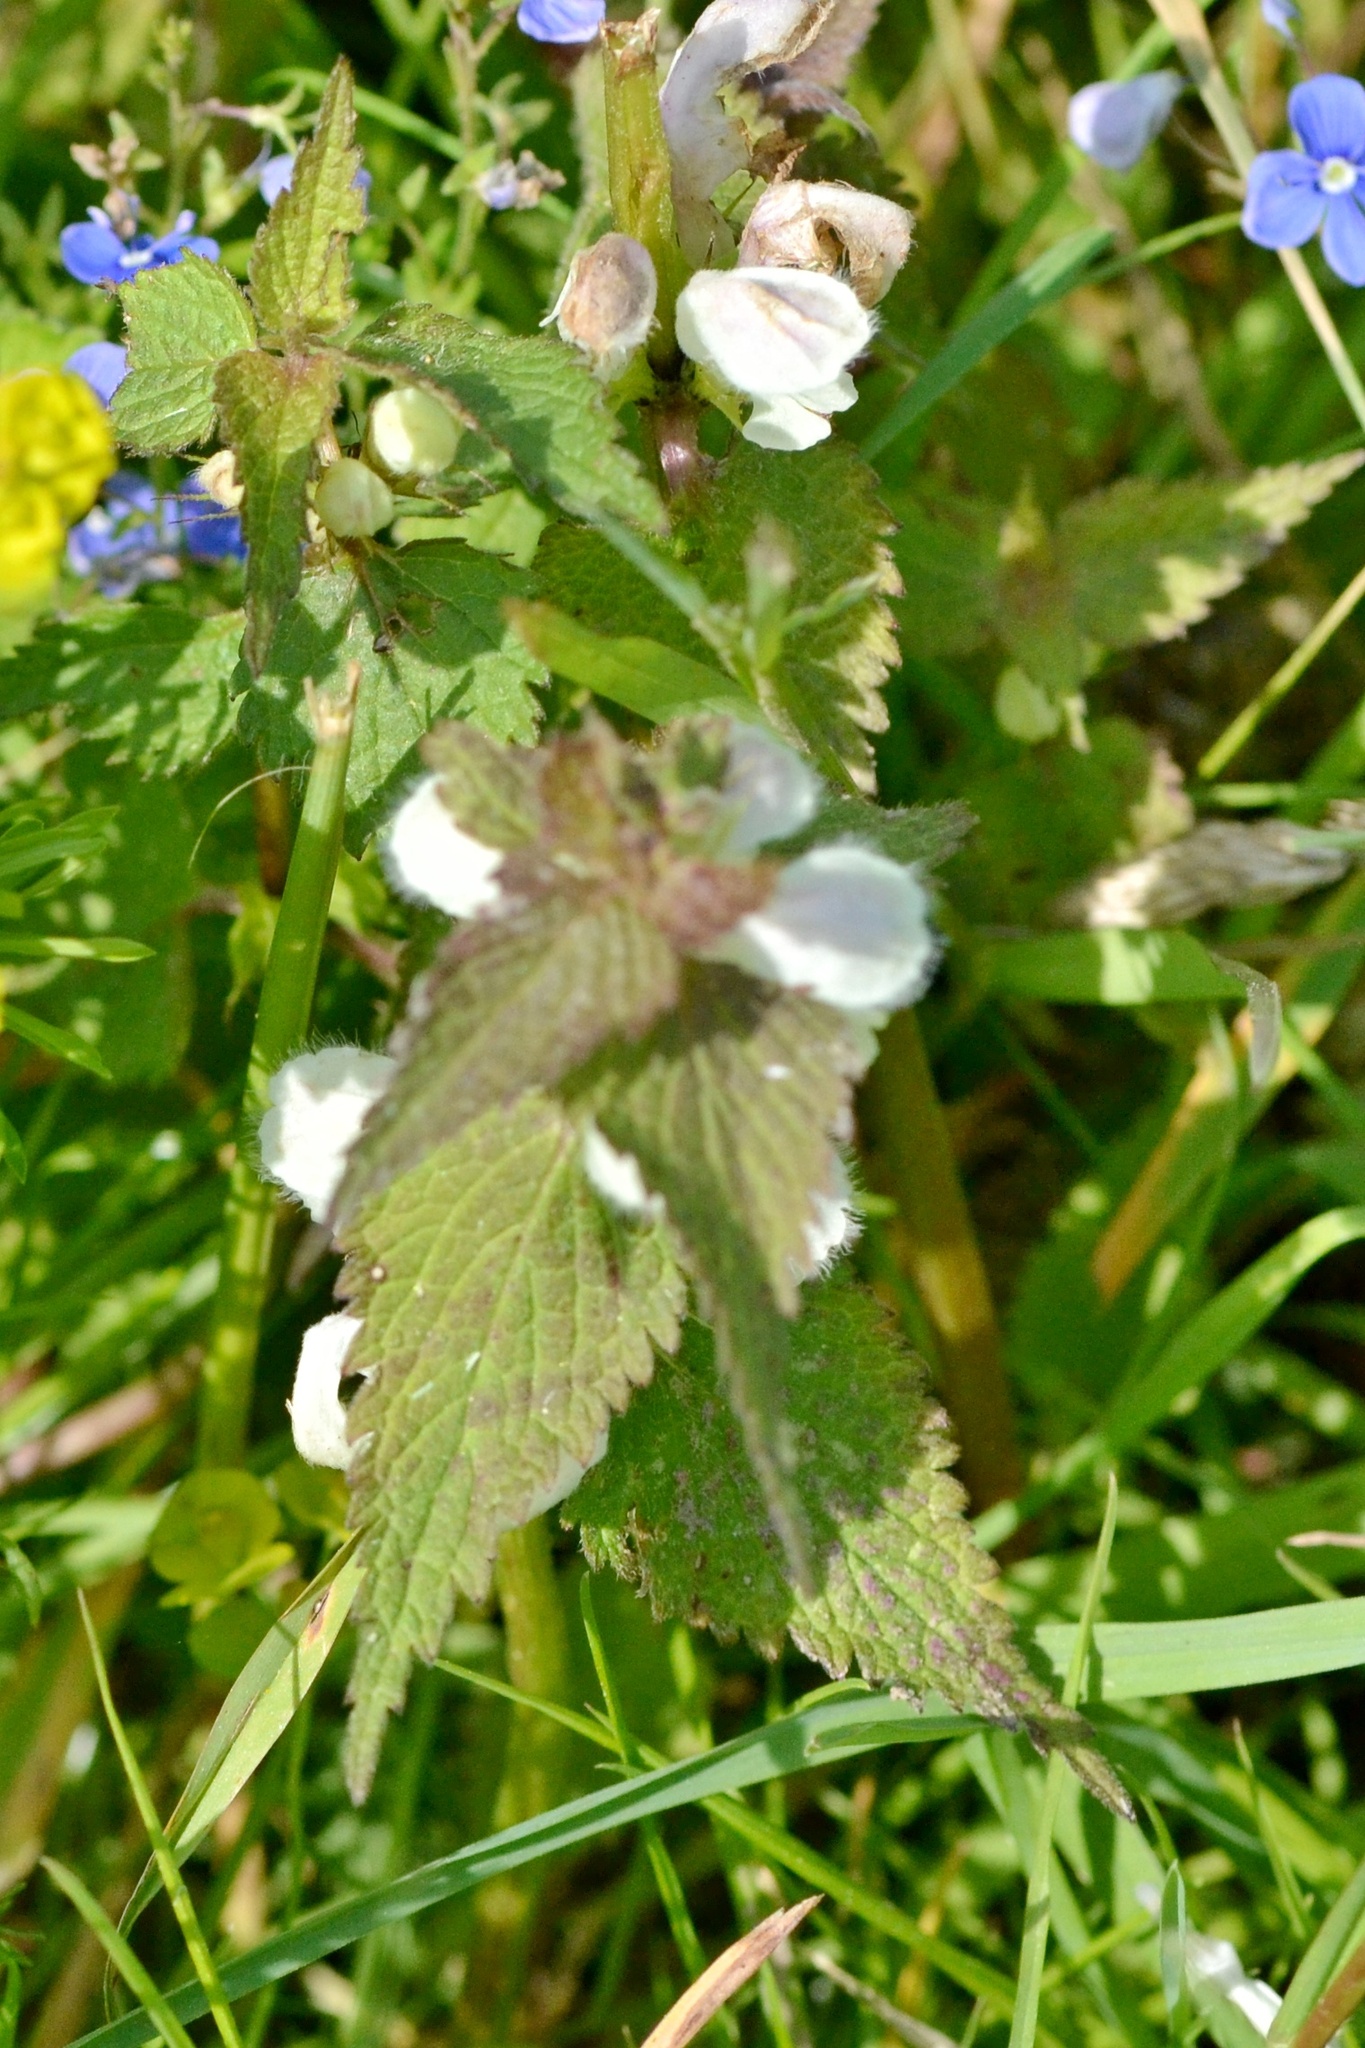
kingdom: Plantae
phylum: Tracheophyta
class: Magnoliopsida
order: Lamiales
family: Lamiaceae
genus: Lamium
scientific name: Lamium album
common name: White dead-nettle
